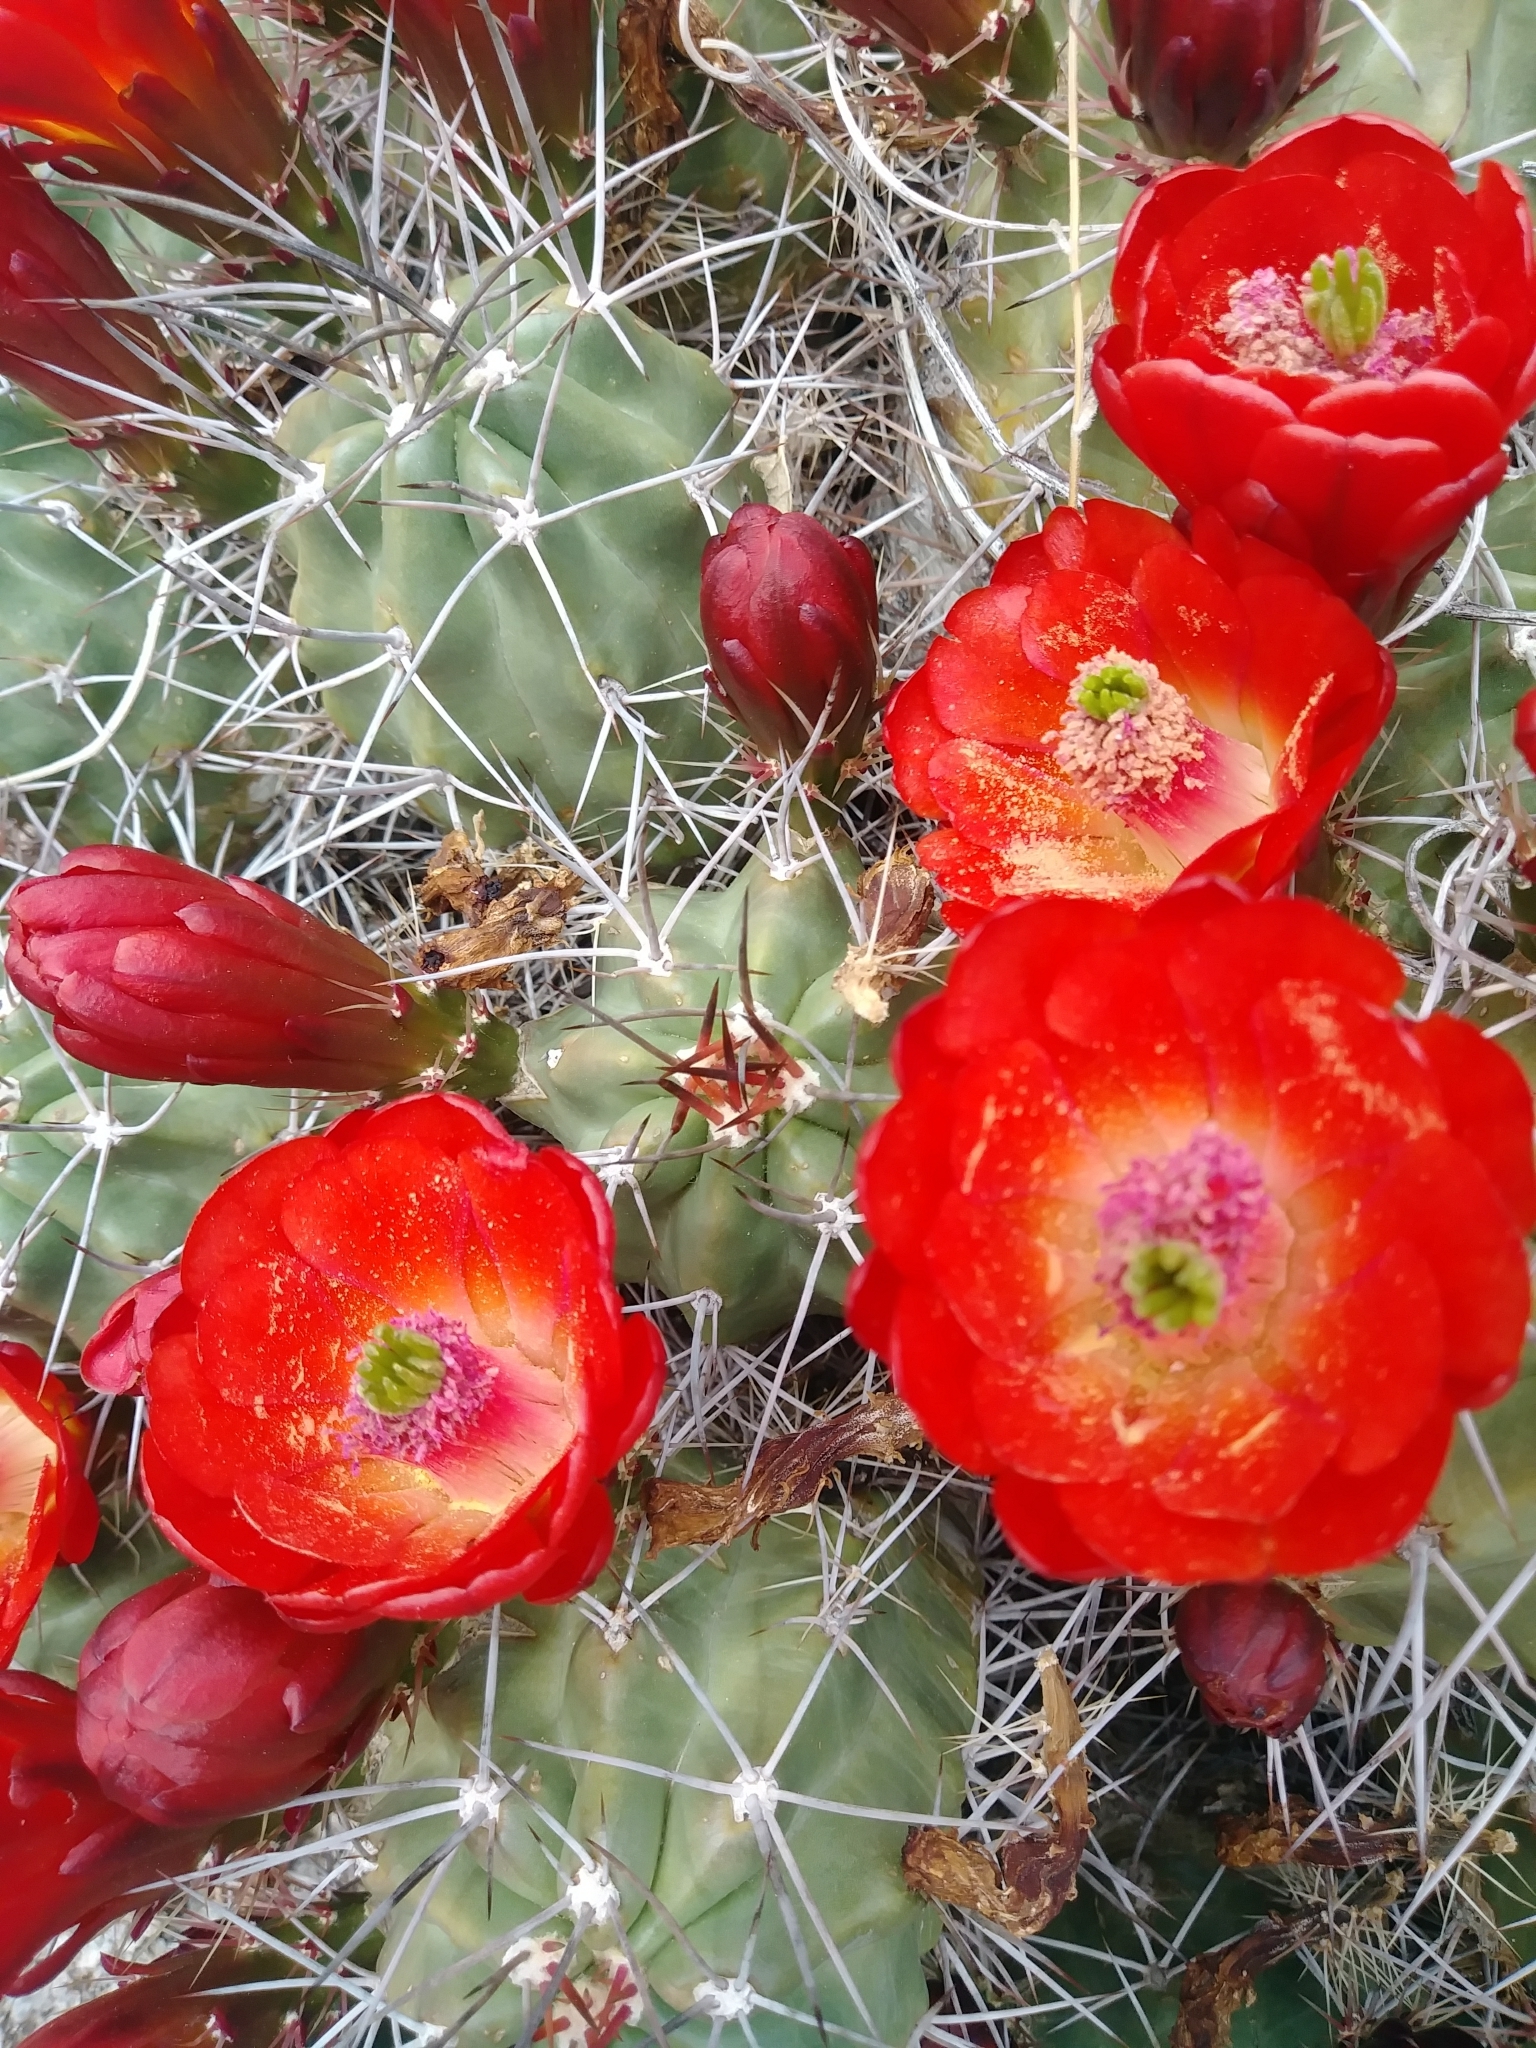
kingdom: Plantae
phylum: Tracheophyta
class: Magnoliopsida
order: Caryophyllales
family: Cactaceae
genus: Echinocereus
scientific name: Echinocereus triglochidiatus
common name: Claretcup hedgehog
